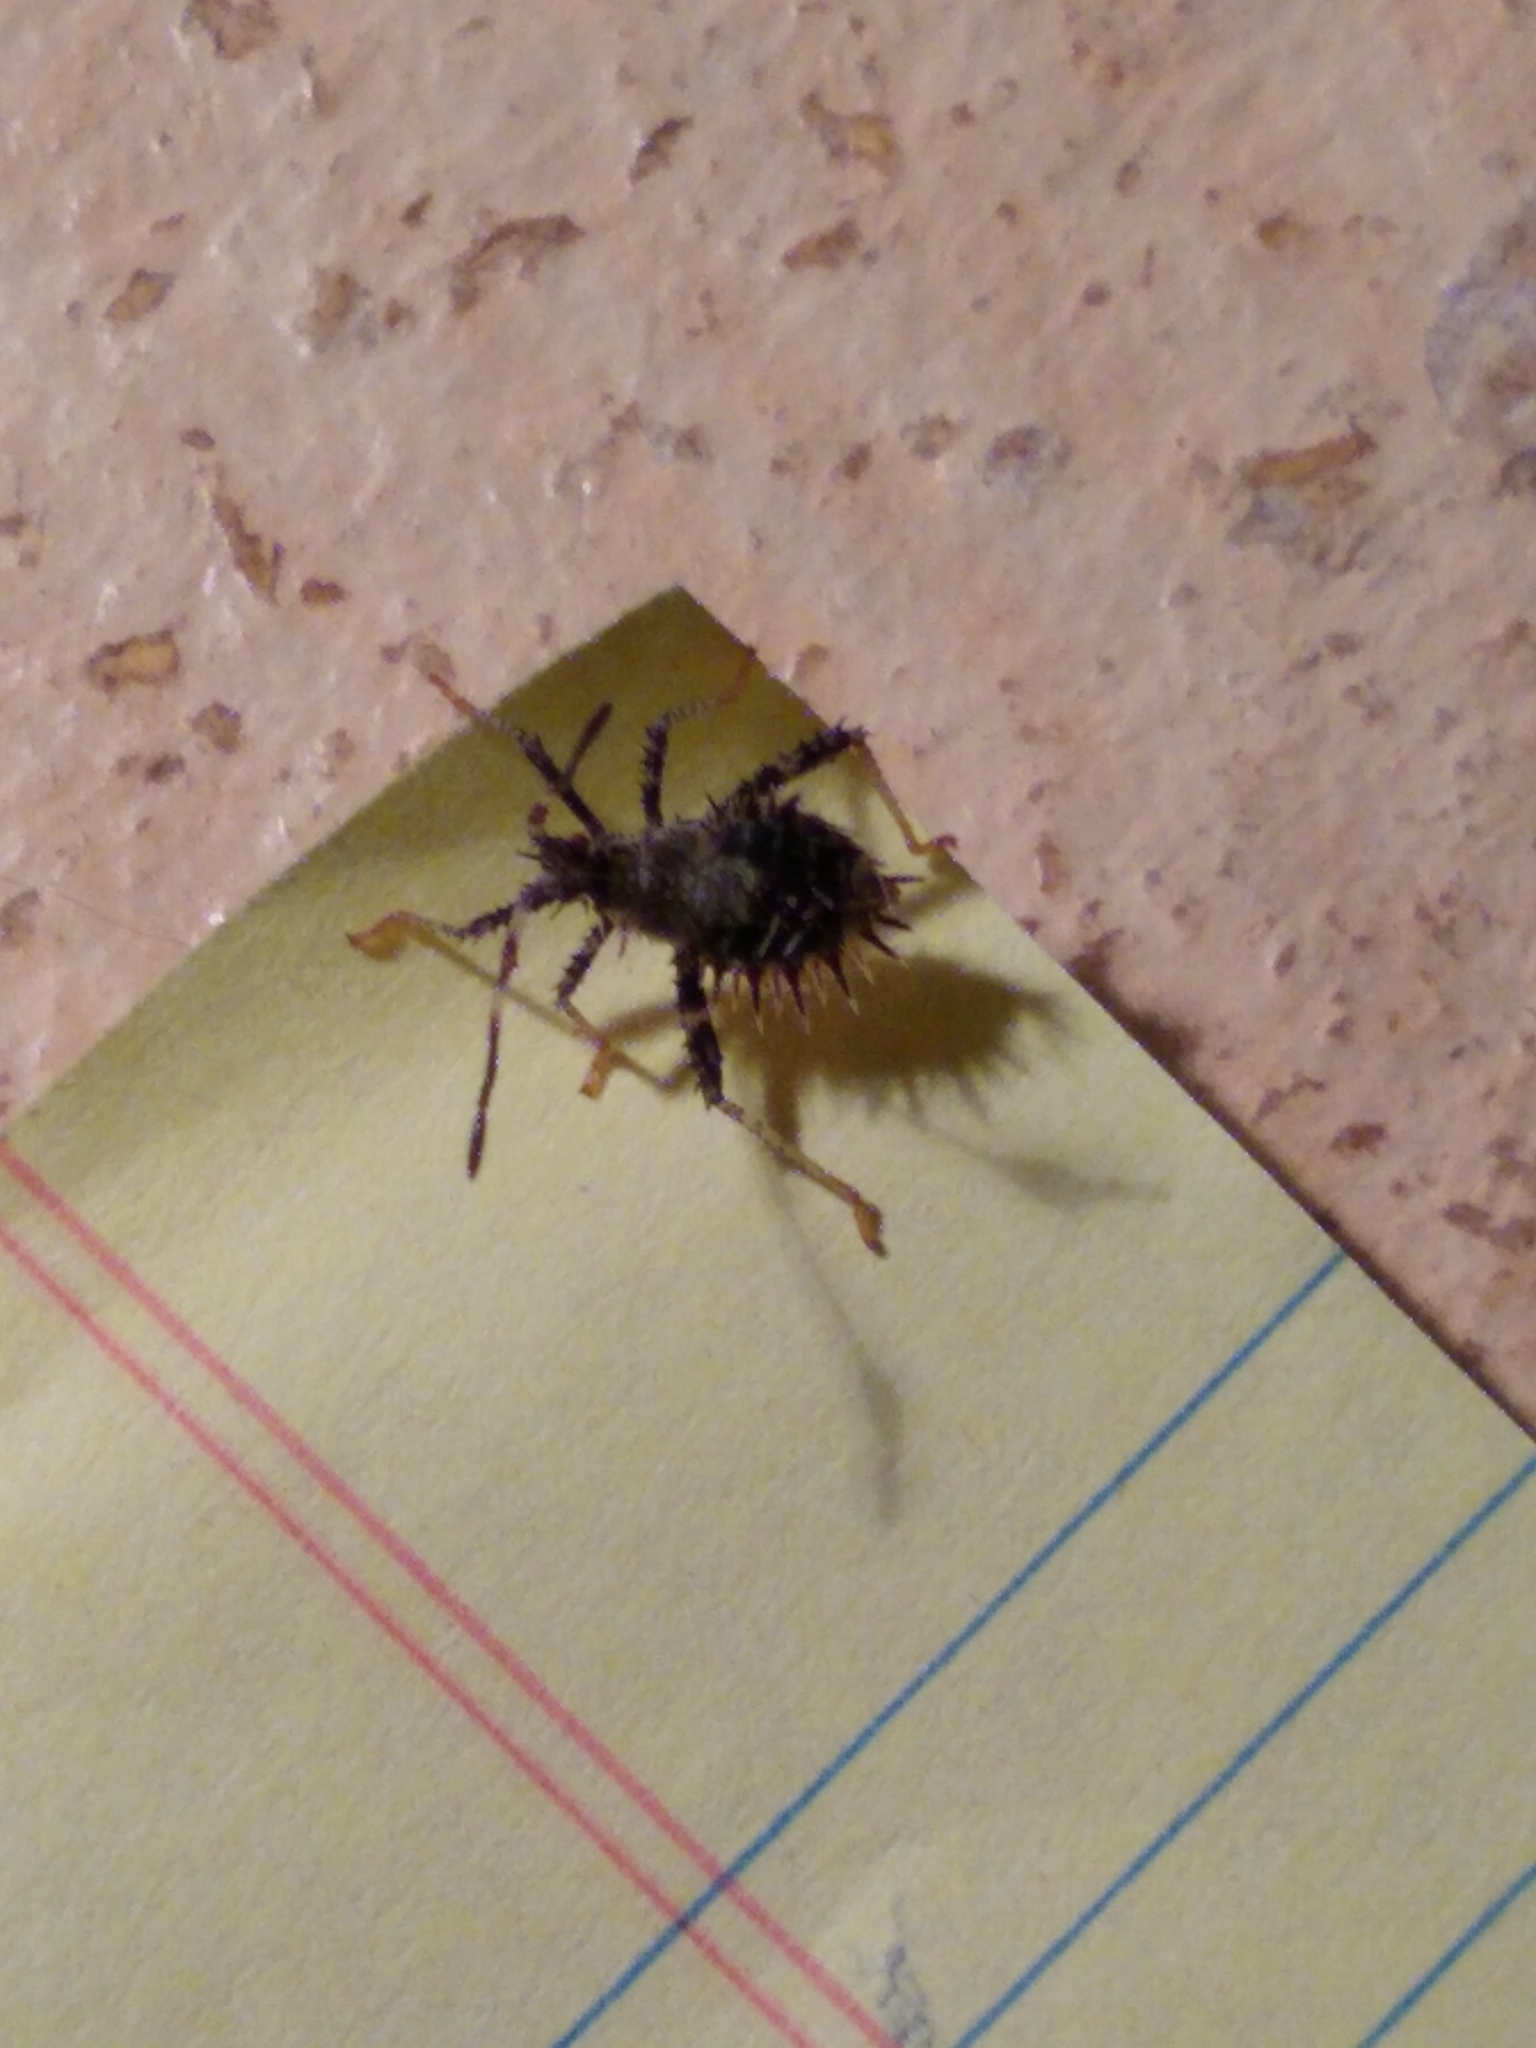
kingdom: Animalia
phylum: Arthropoda
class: Insecta
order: Hemiptera
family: Coreidae
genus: Euthochtha
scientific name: Euthochtha galeator
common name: Helmeted squash bug
